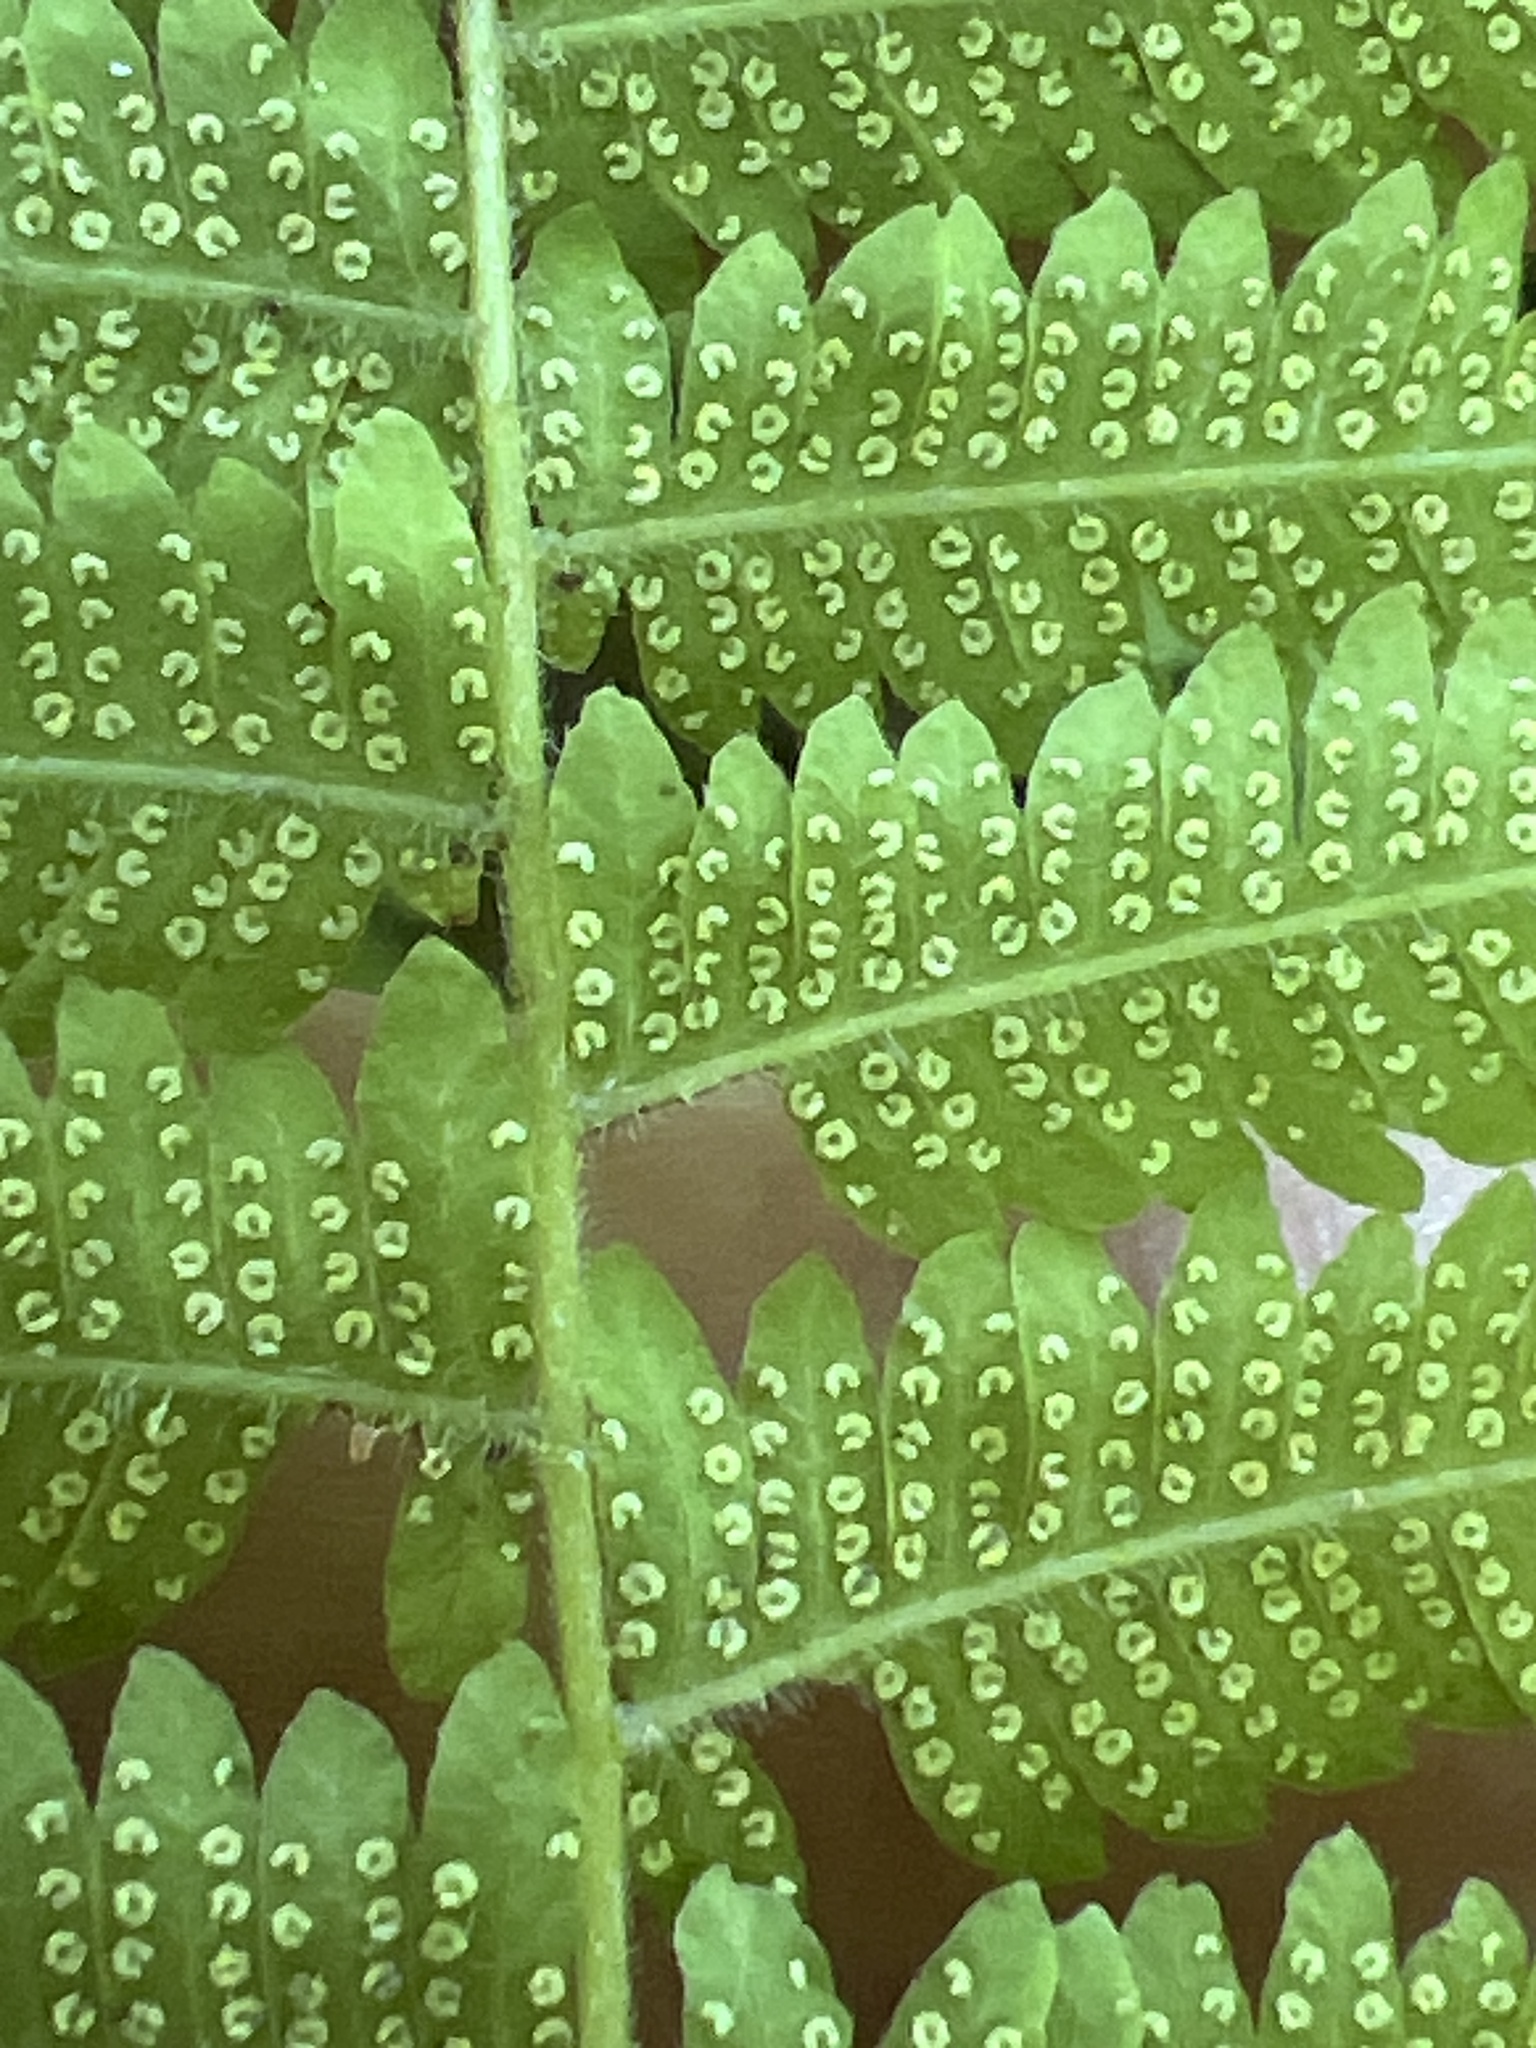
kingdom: Plantae
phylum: Tracheophyta
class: Polypodiopsida
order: Polypodiales
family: Thelypteridaceae
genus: Amauropelta
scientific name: Amauropelta noveboracensis
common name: New york fern
